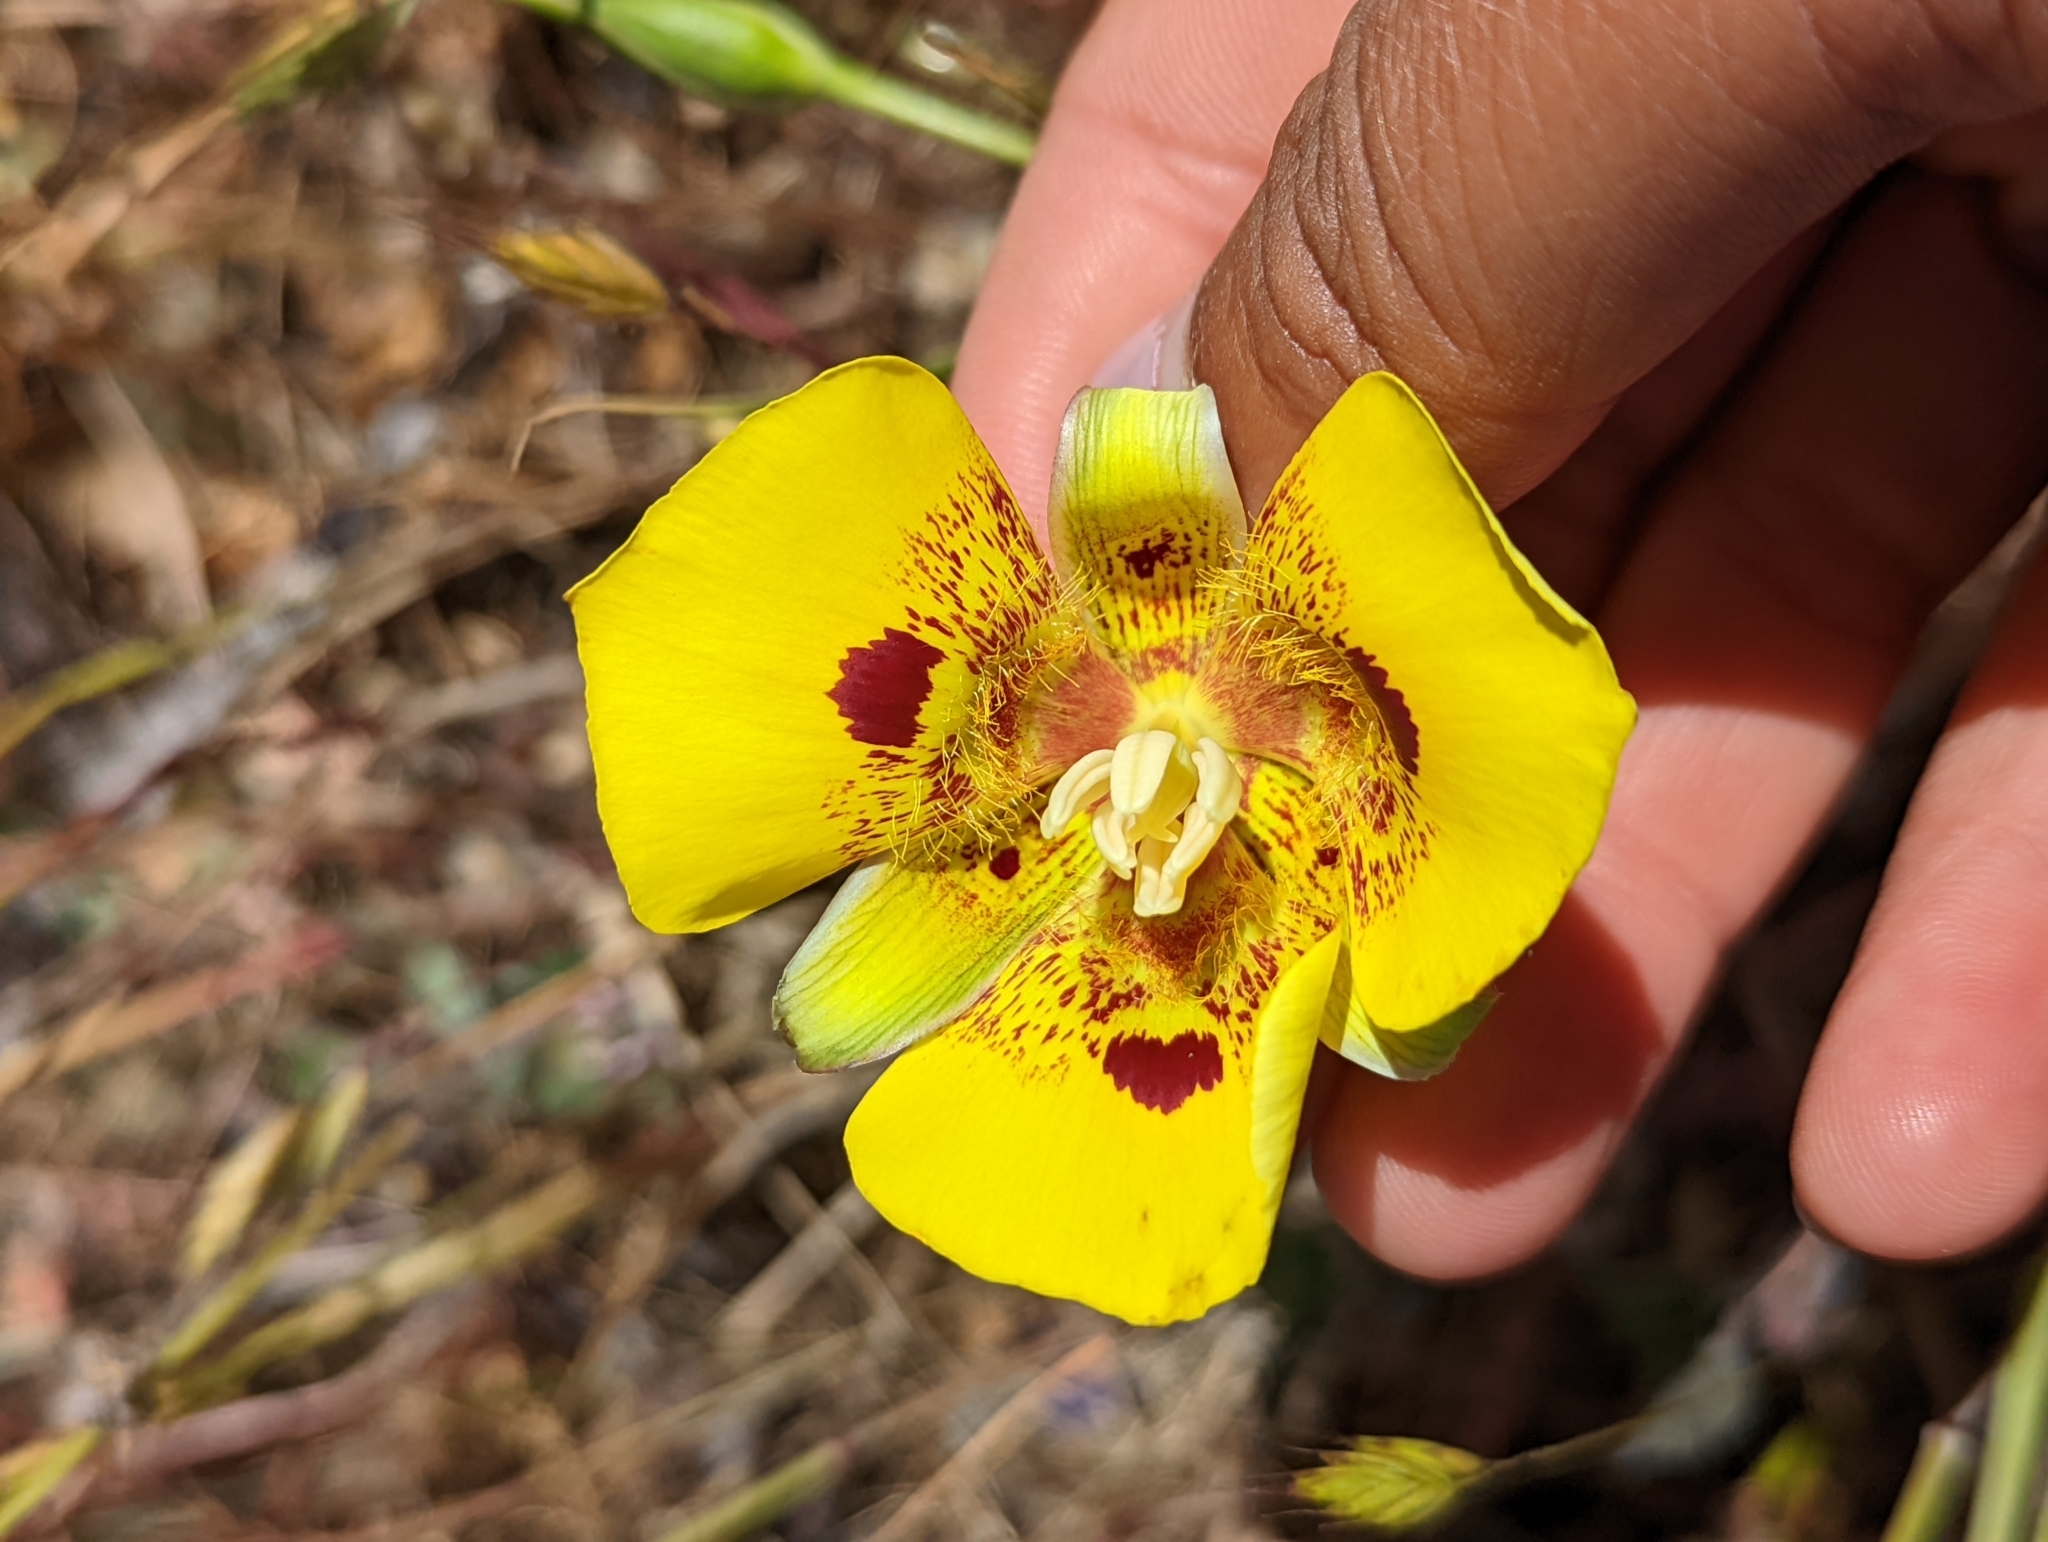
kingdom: Plantae
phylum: Tracheophyta
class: Liliopsida
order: Liliales
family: Liliaceae
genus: Calochortus
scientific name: Calochortus luteus
